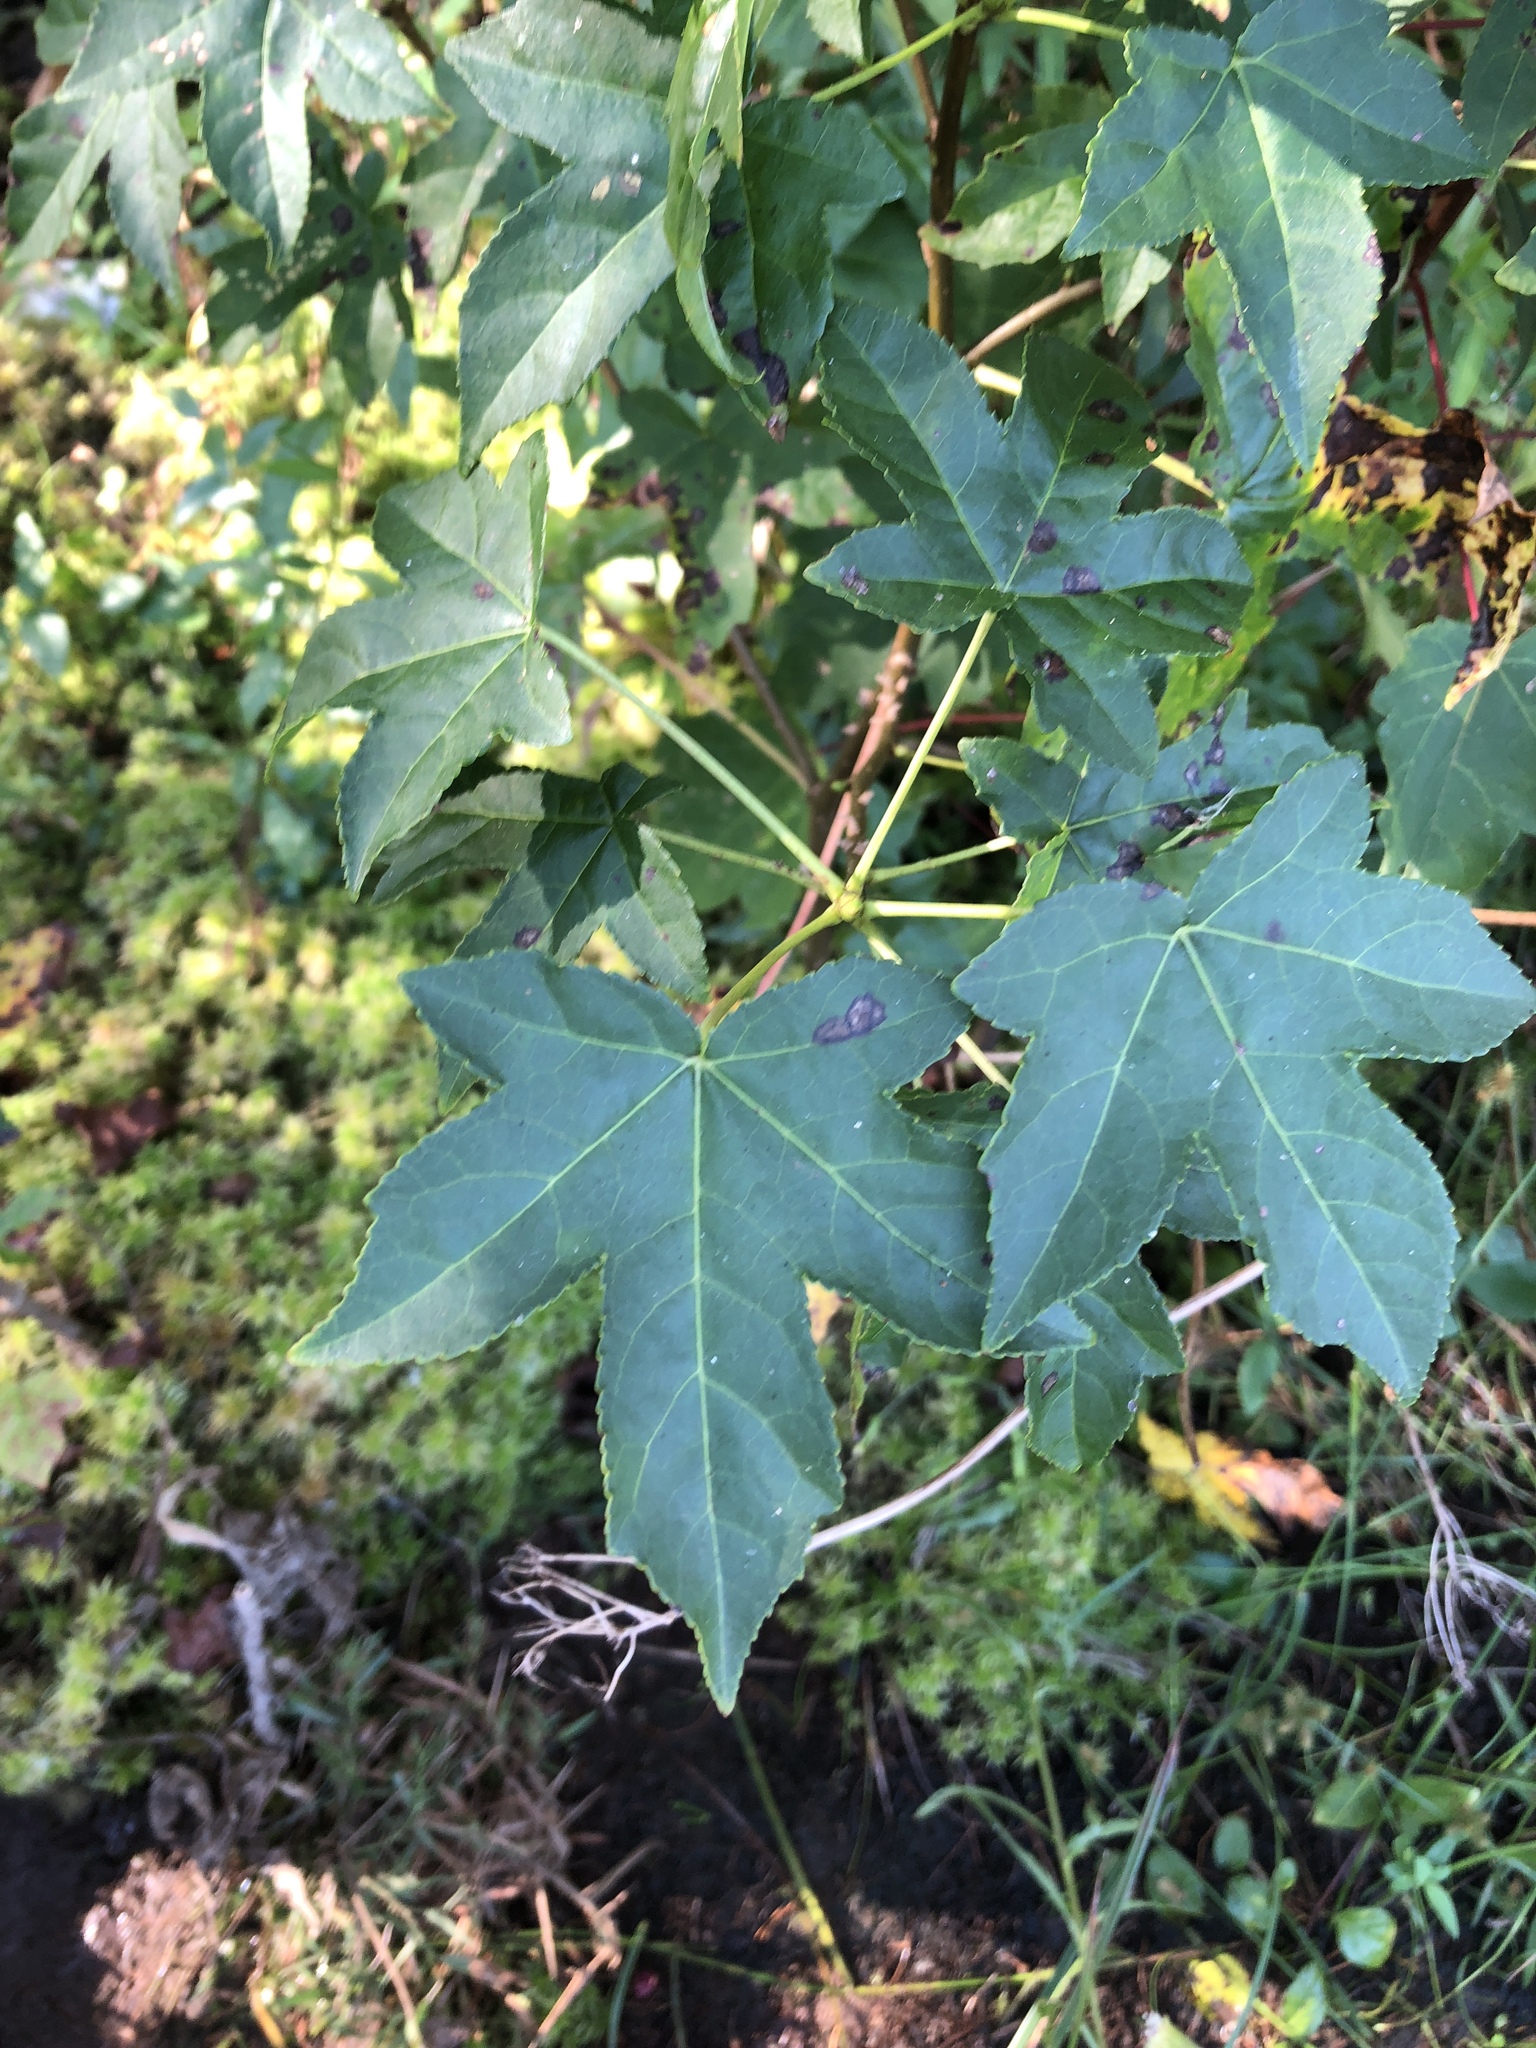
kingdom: Plantae
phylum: Tracheophyta
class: Magnoliopsida
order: Saxifragales
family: Altingiaceae
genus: Liquidambar
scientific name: Liquidambar styraciflua
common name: Sweet gum
